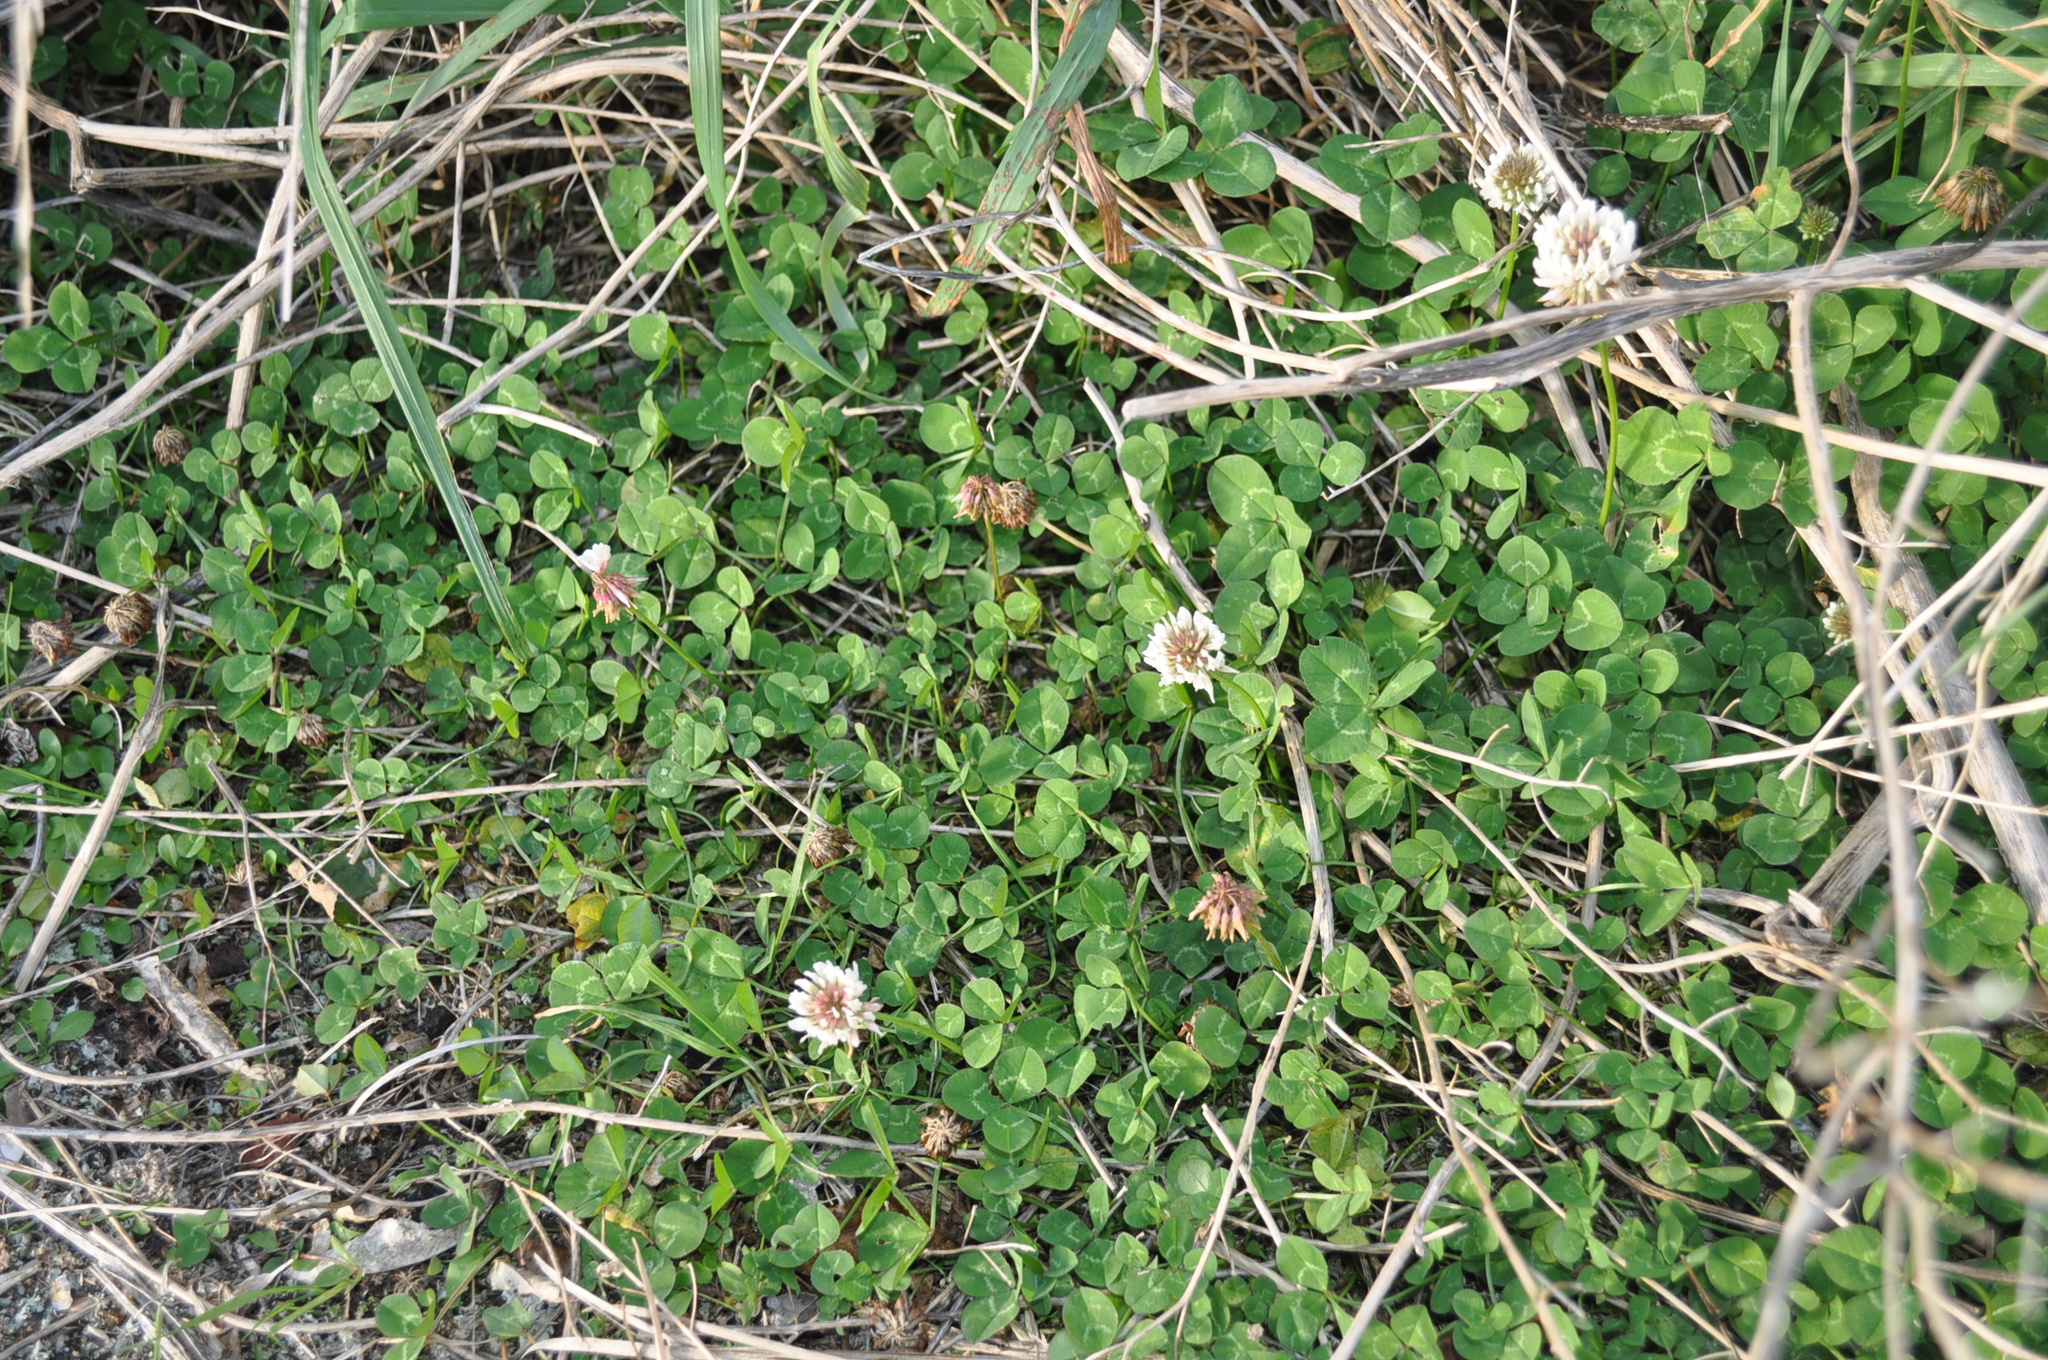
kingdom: Plantae
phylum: Tracheophyta
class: Magnoliopsida
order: Fabales
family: Fabaceae
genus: Trifolium
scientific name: Trifolium repens
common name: White clover
